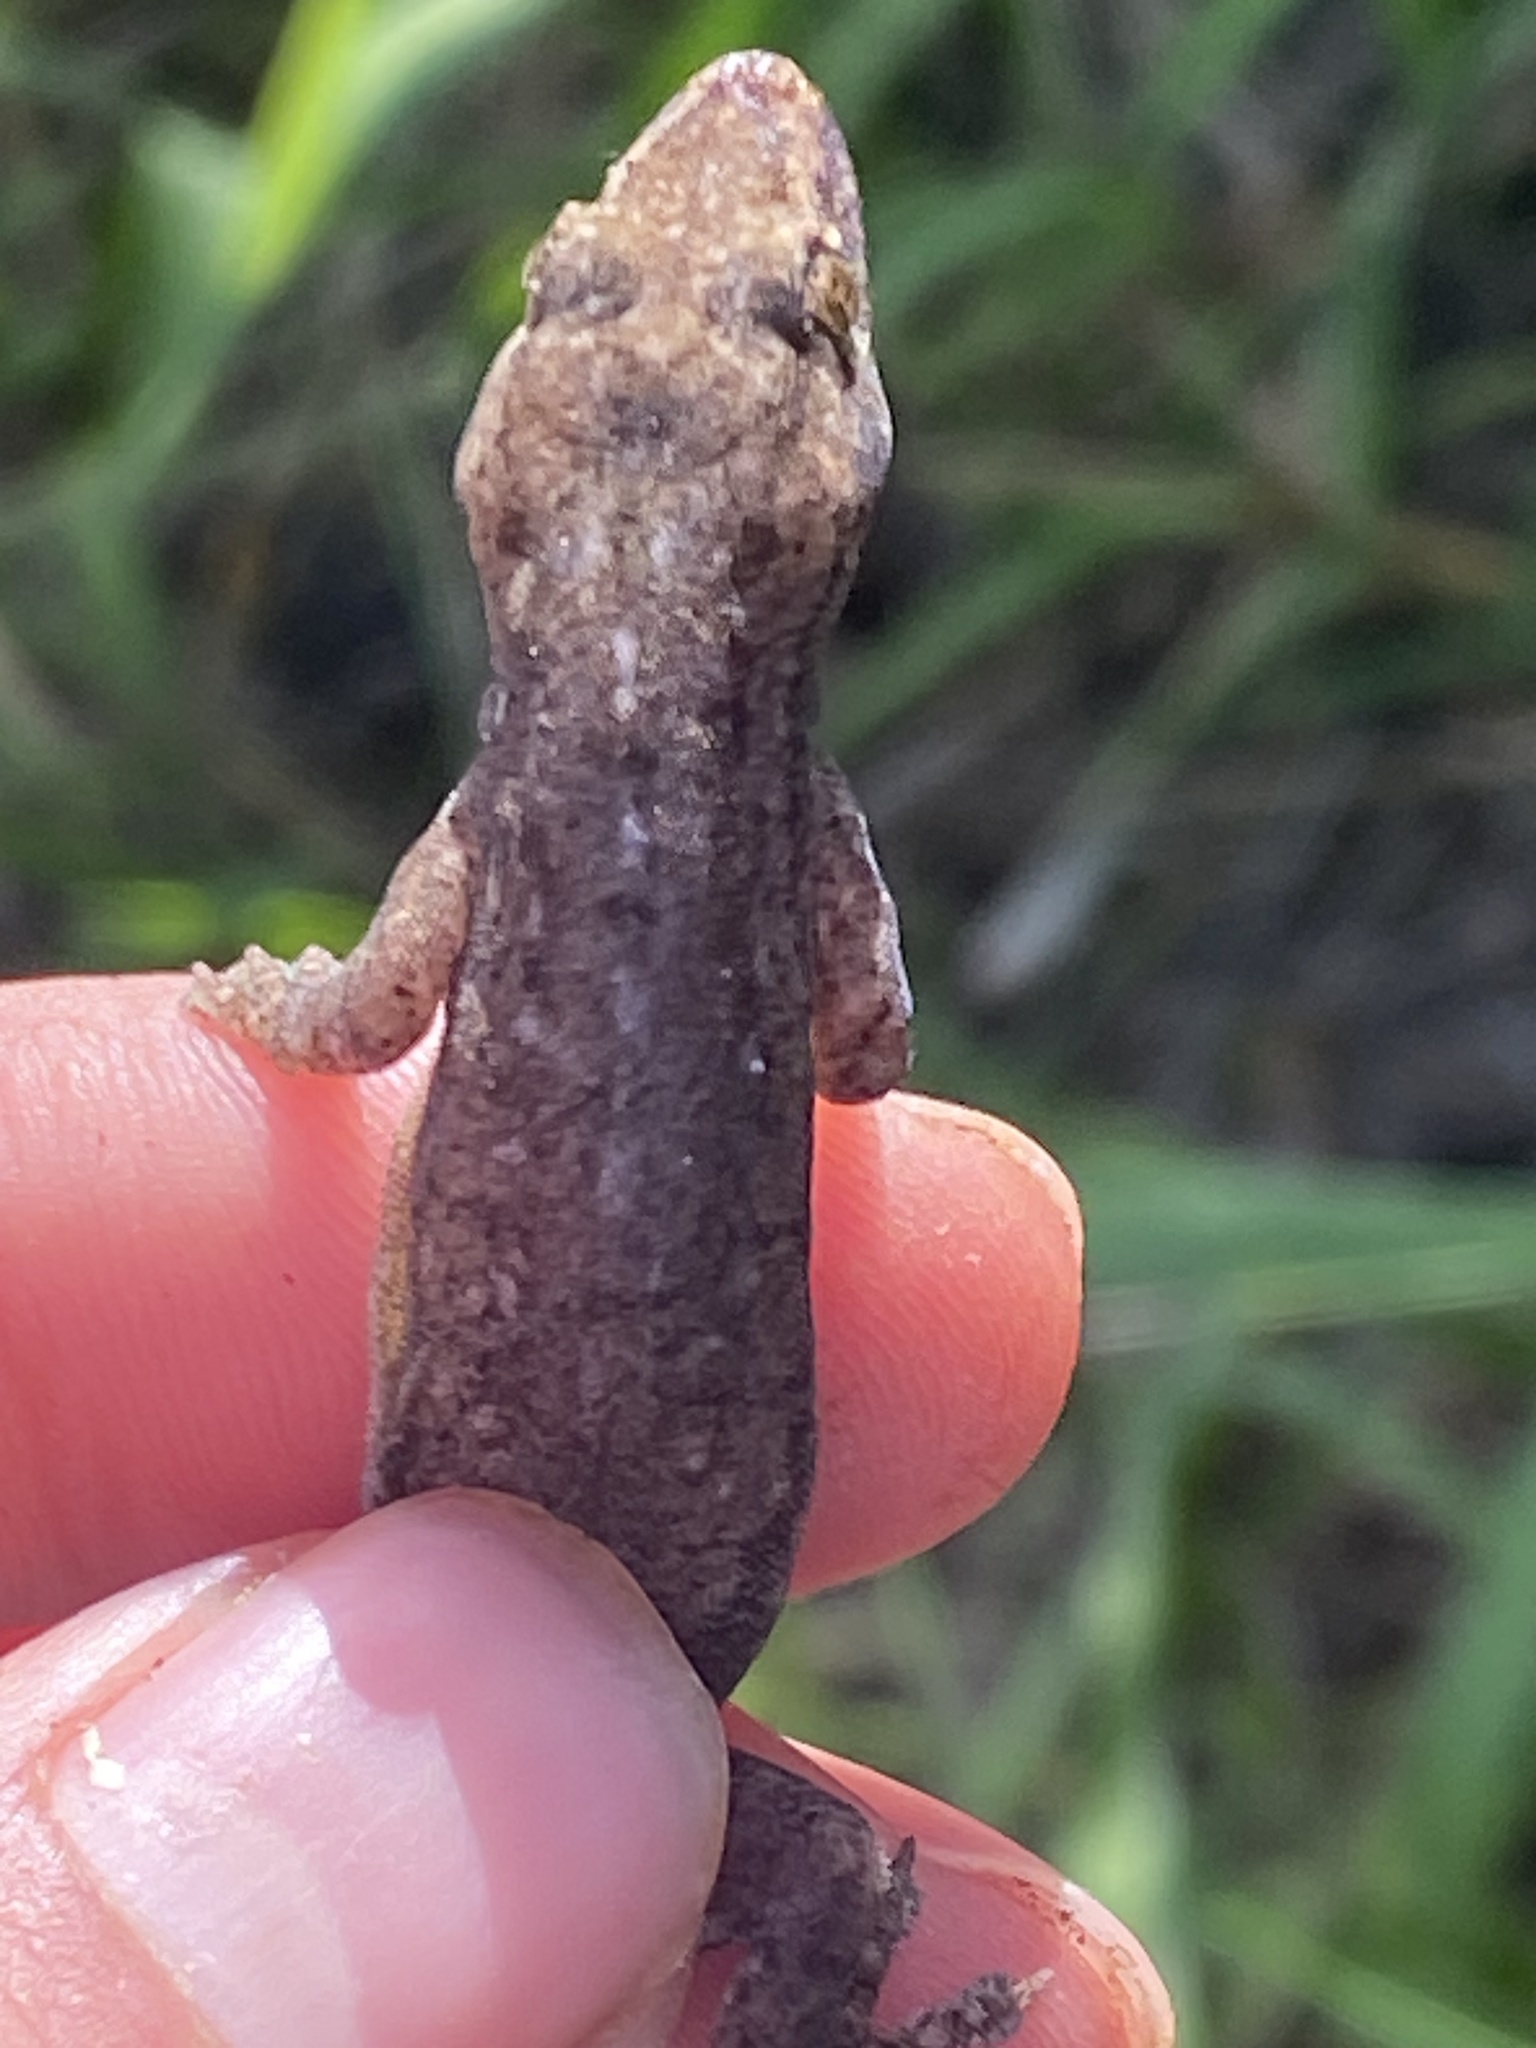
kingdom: Animalia
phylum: Chordata
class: Squamata
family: Gekkonidae
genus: Hemidactylus
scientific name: Hemidactylus frenatus
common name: Common house gecko
